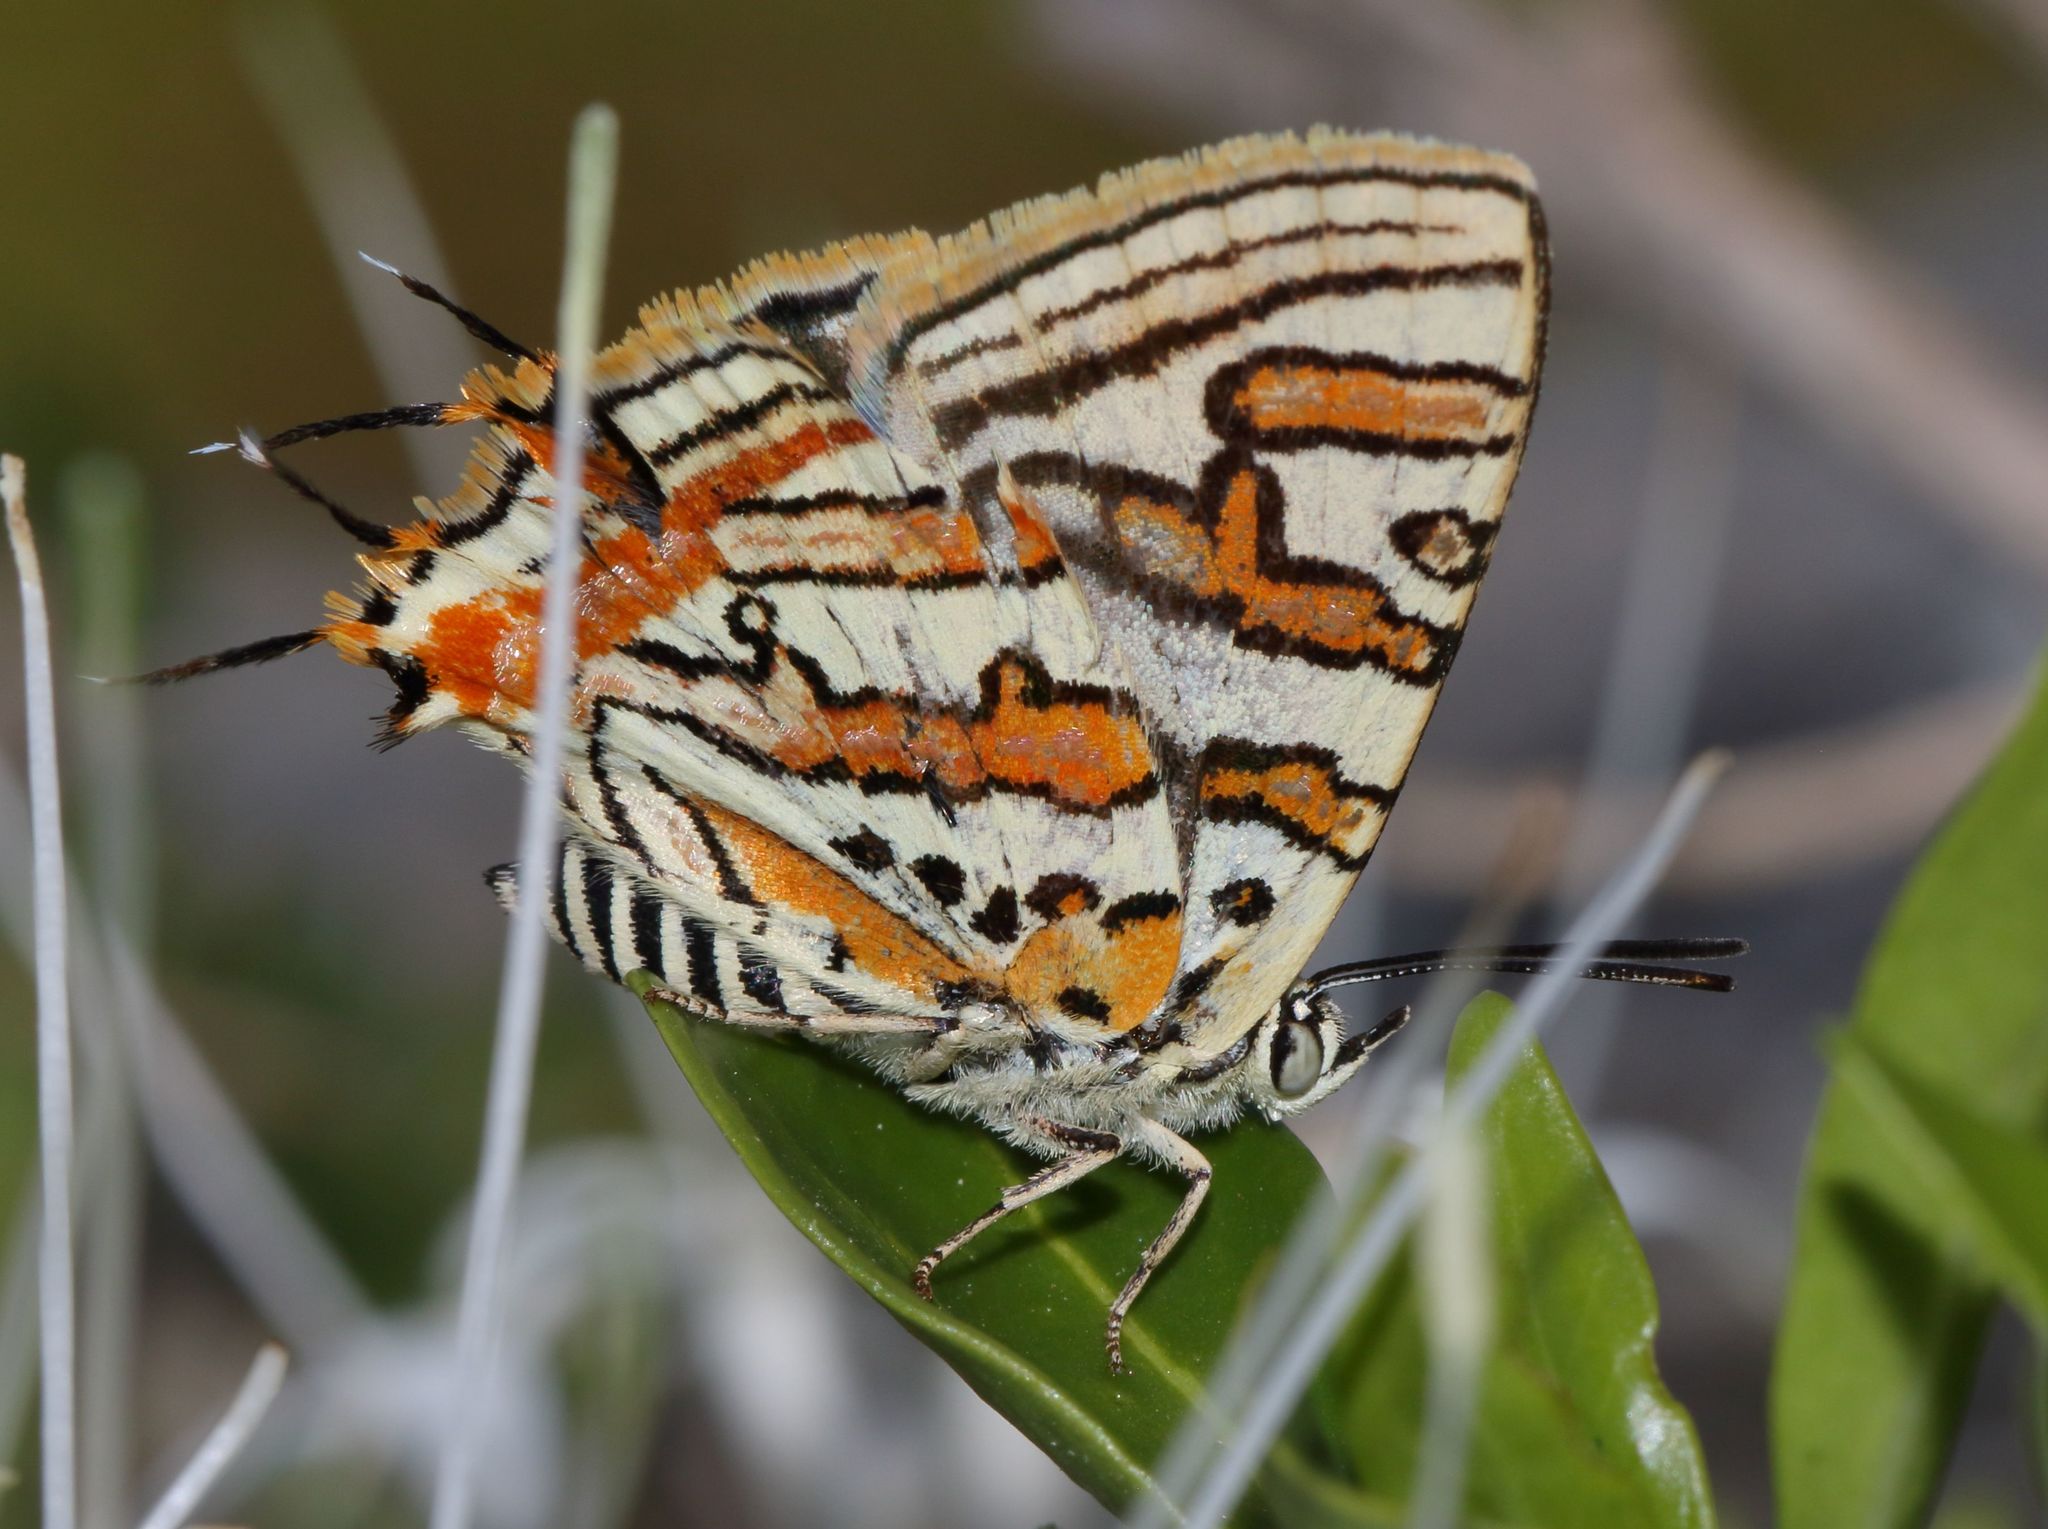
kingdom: Animalia
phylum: Arthropoda
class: Insecta
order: Lepidoptera
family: Lycaenidae
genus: Cigaritis
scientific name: Cigaritis mozambica
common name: Mozambique bar
